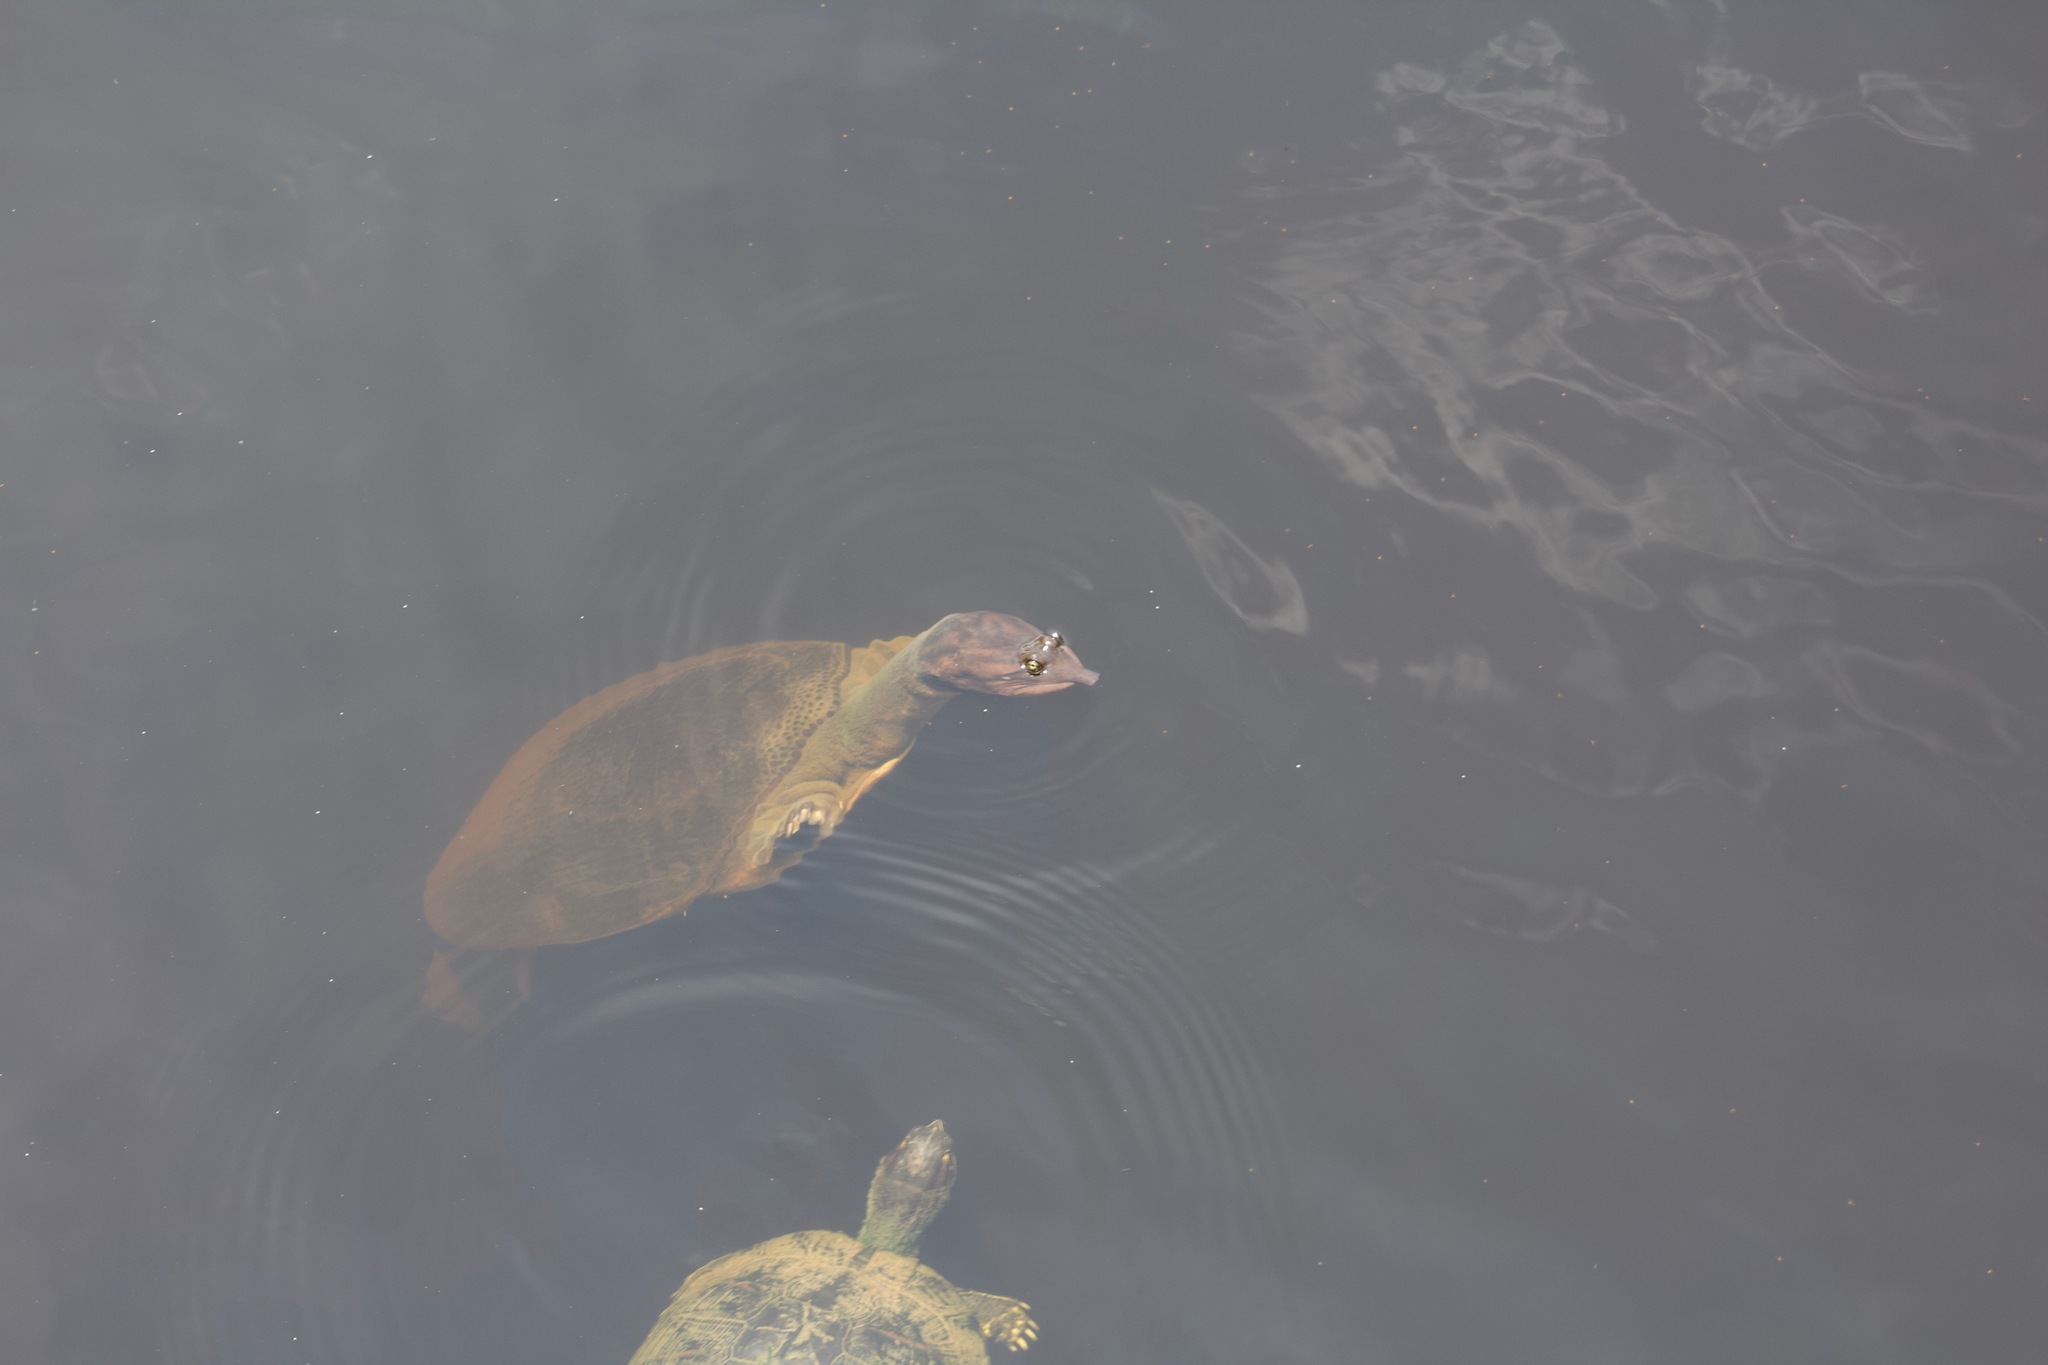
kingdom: Animalia
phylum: Chordata
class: Testudines
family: Trionychidae
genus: Apalone
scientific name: Apalone ferox
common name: Florida softshell turtle
